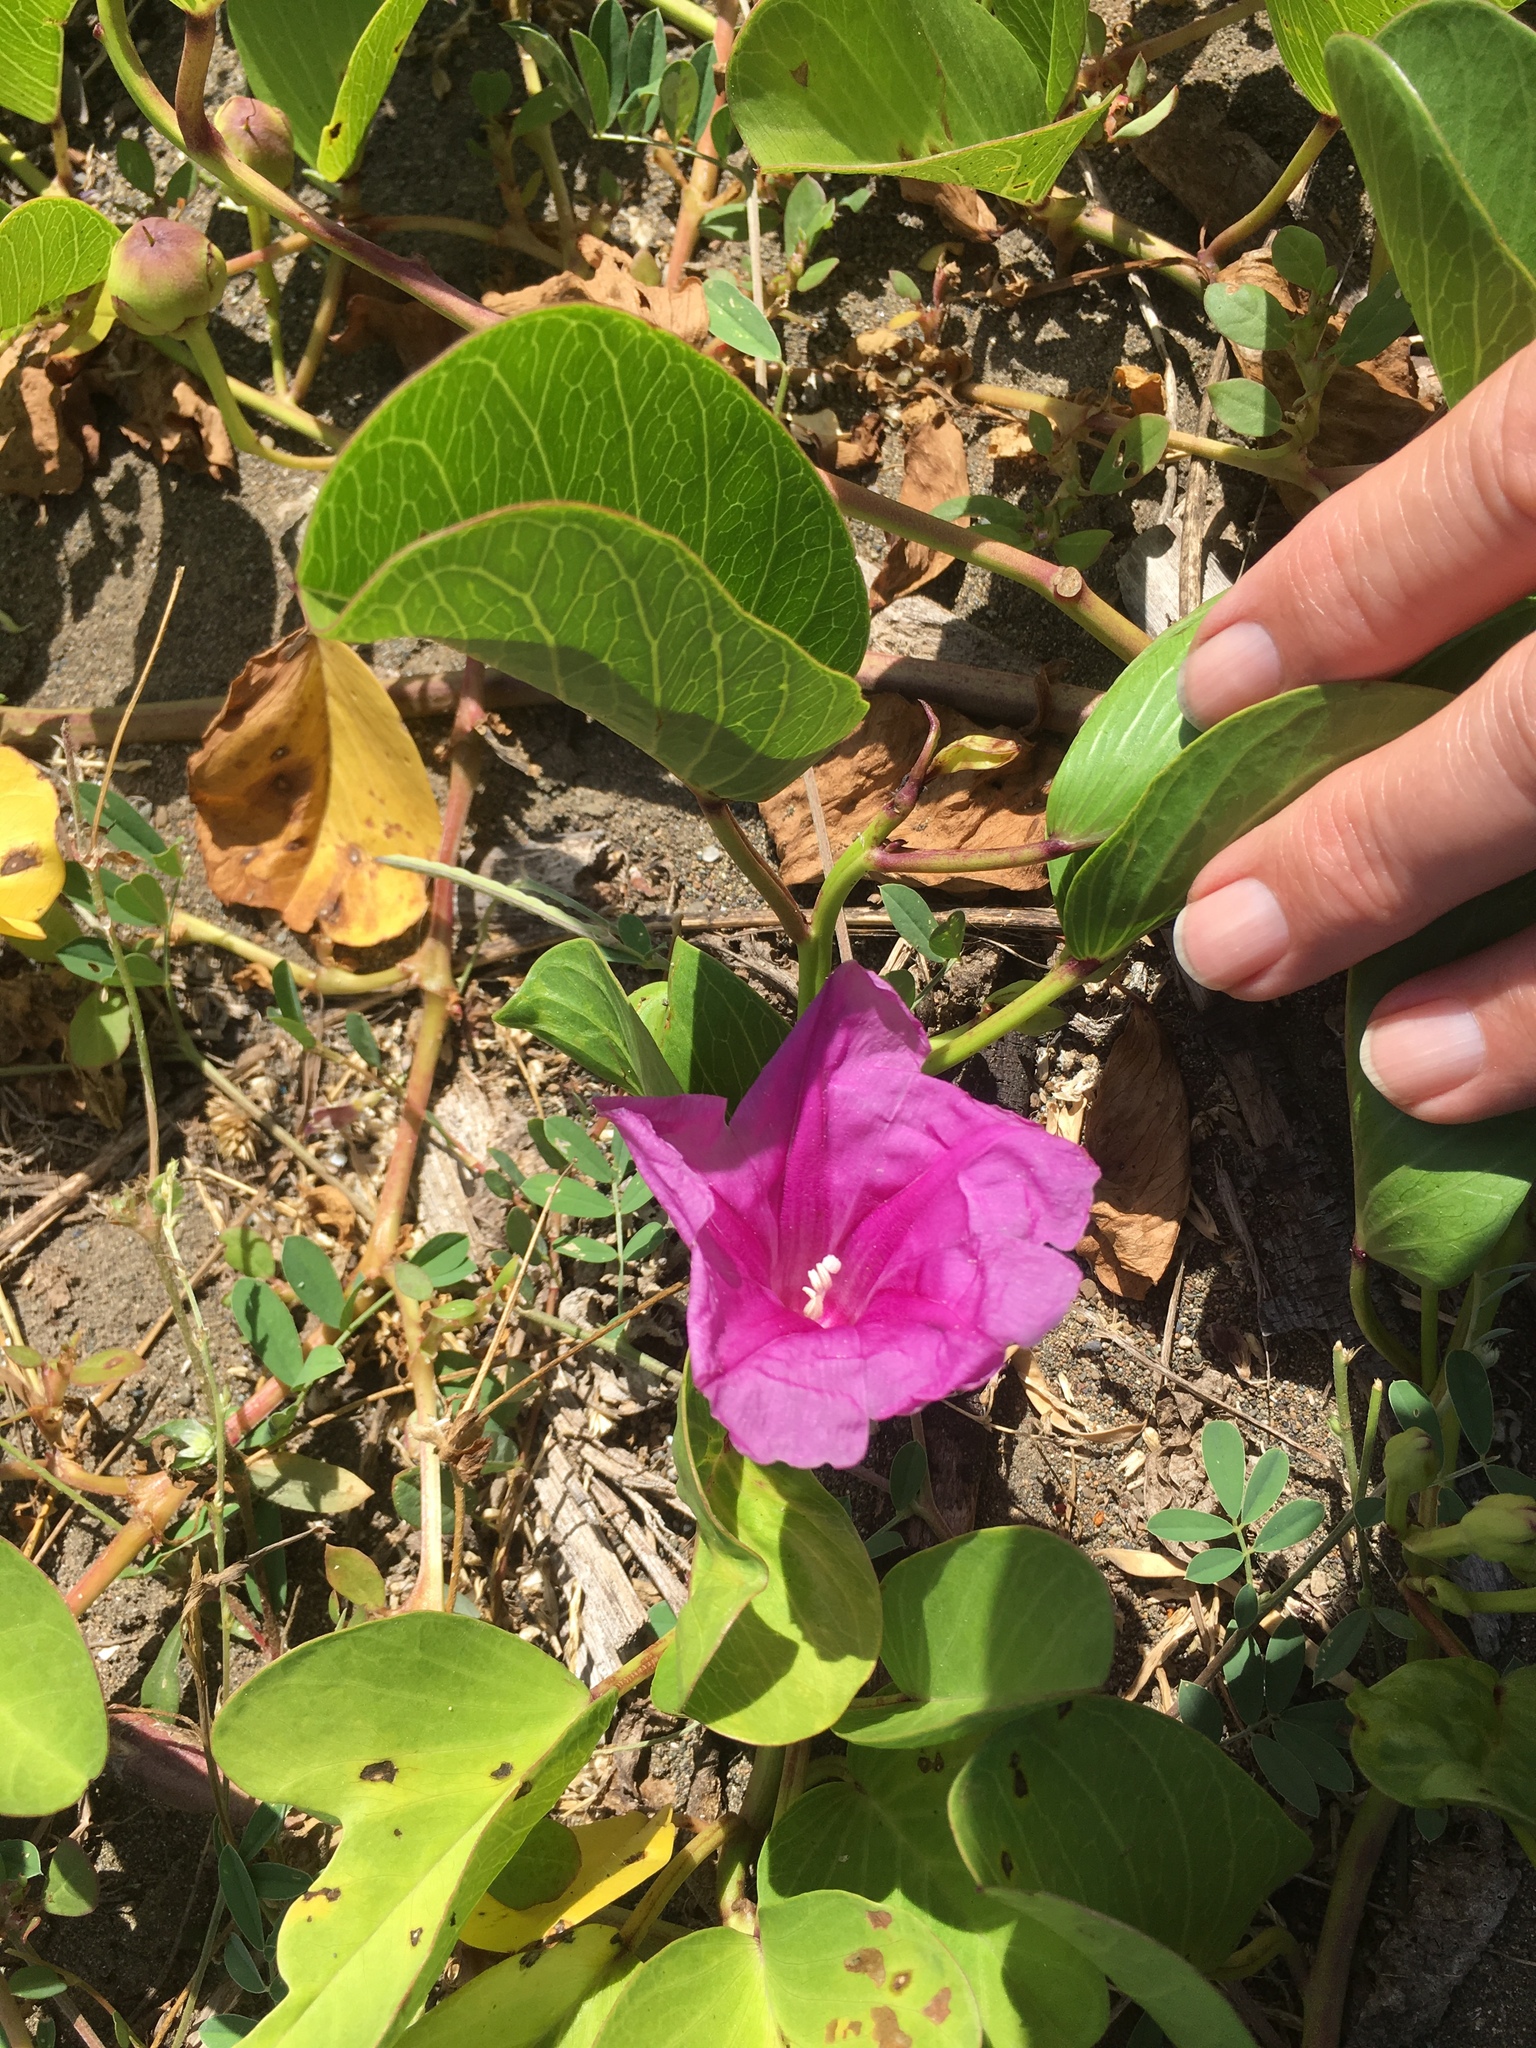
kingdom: Plantae
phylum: Tracheophyta
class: Magnoliopsida
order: Solanales
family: Convolvulaceae
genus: Ipomoea
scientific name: Ipomoea pes-caprae
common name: Beach morning glory
